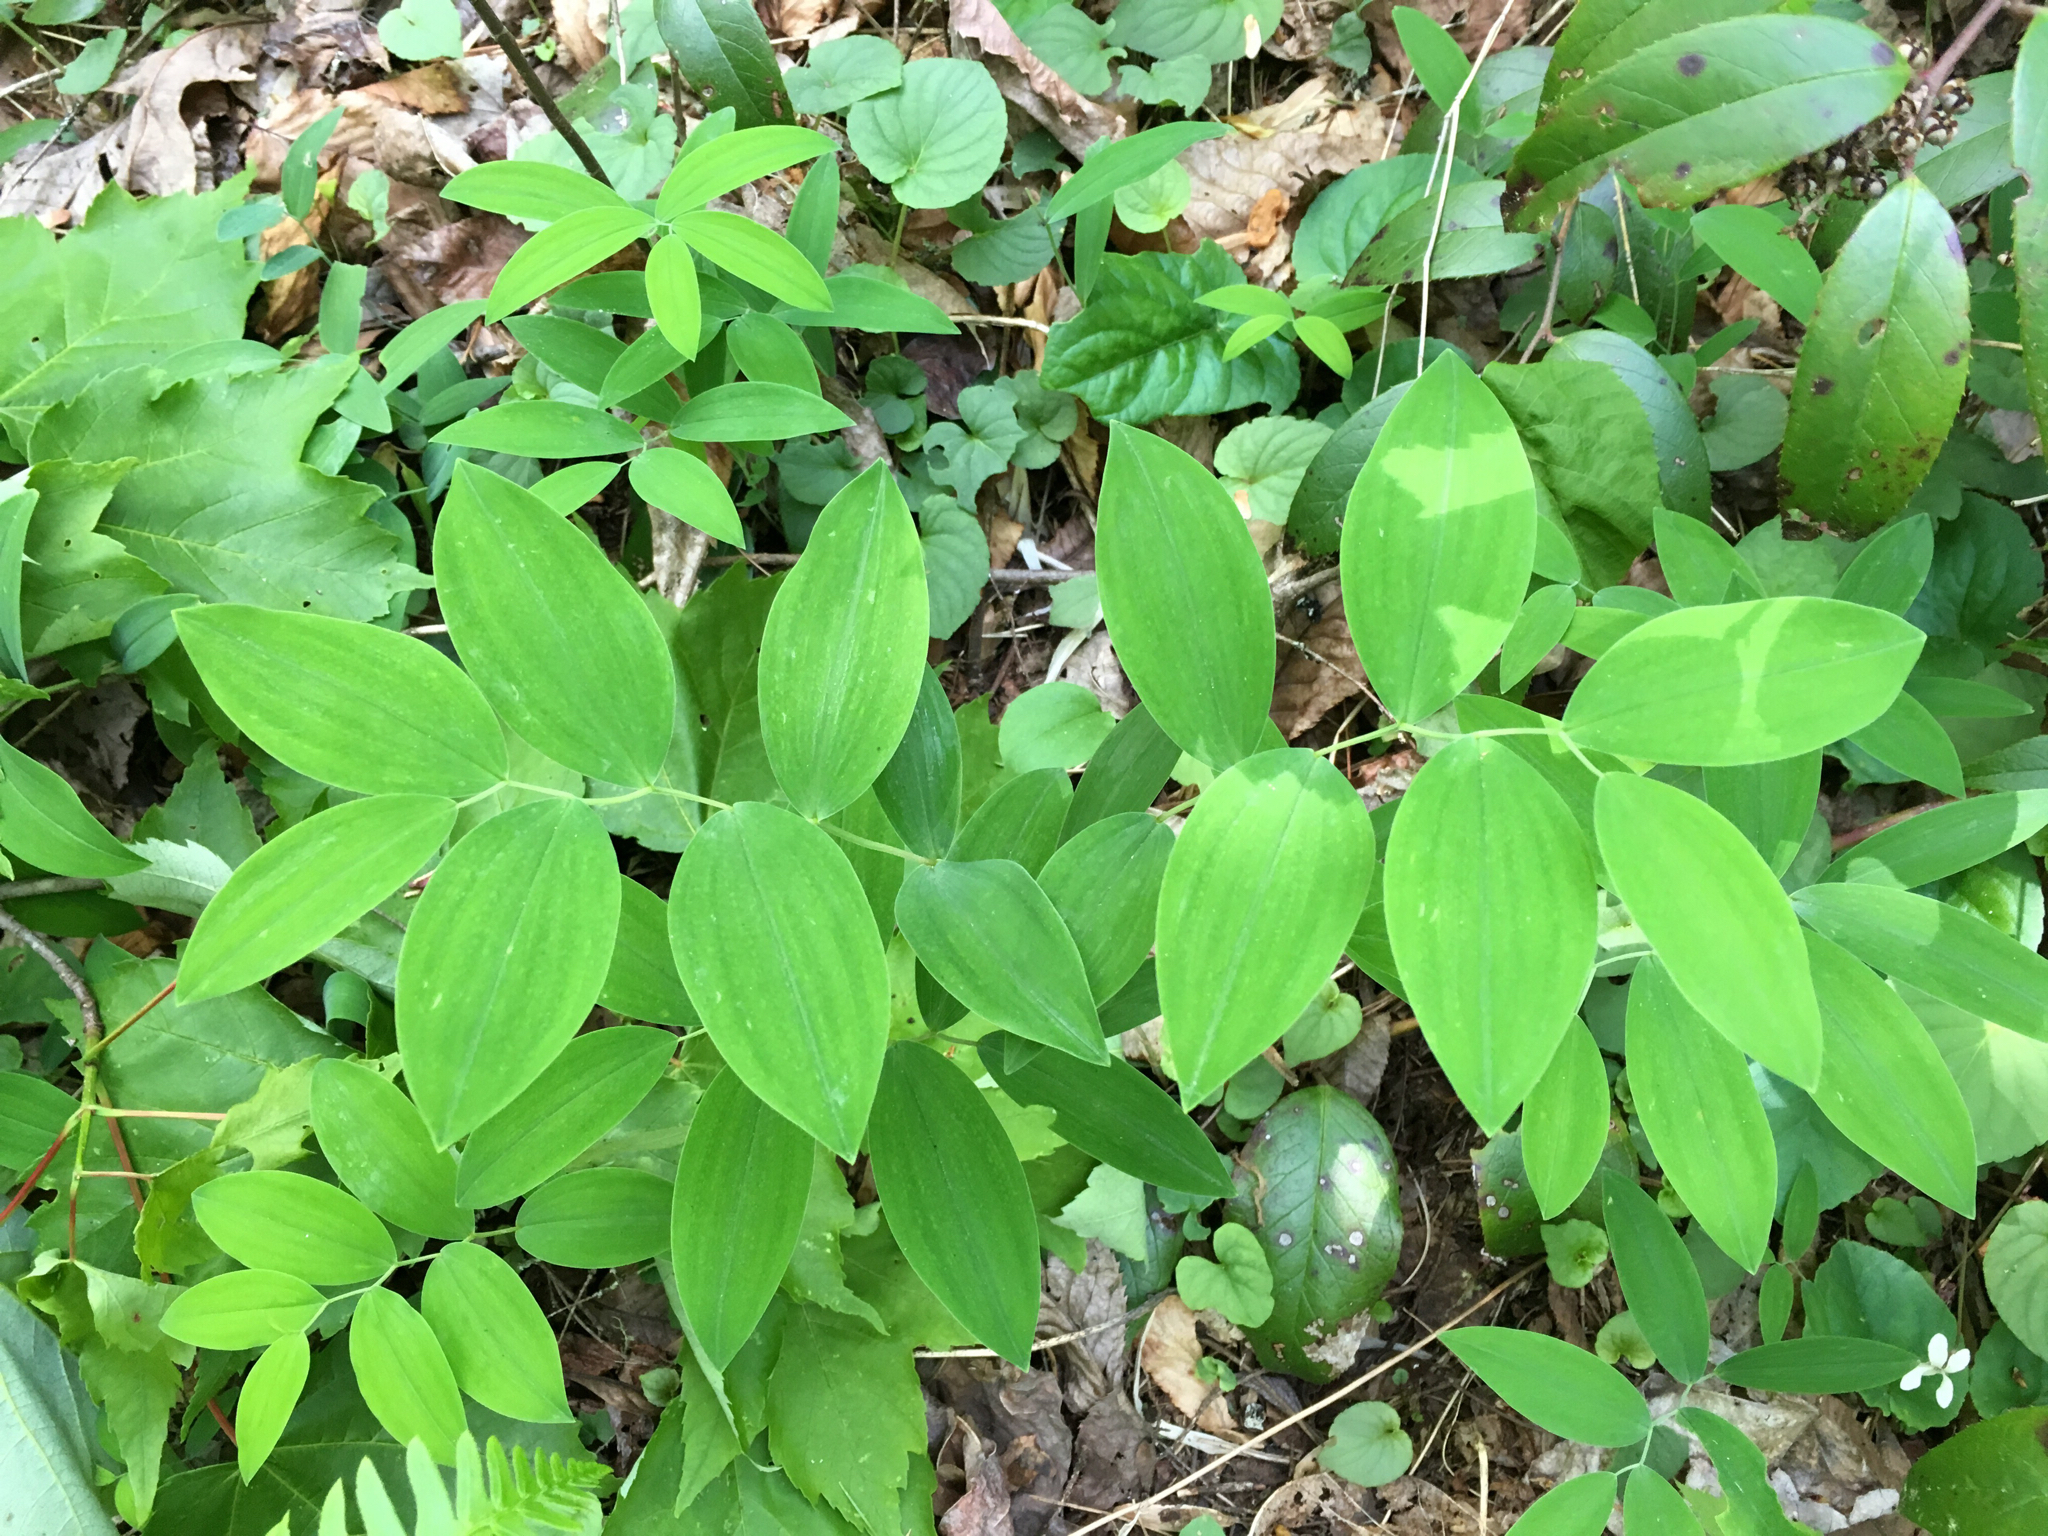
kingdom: Plantae
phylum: Tracheophyta
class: Liliopsida
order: Liliales
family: Colchicaceae
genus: Uvularia
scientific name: Uvularia sessilifolia
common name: Straw-lily
